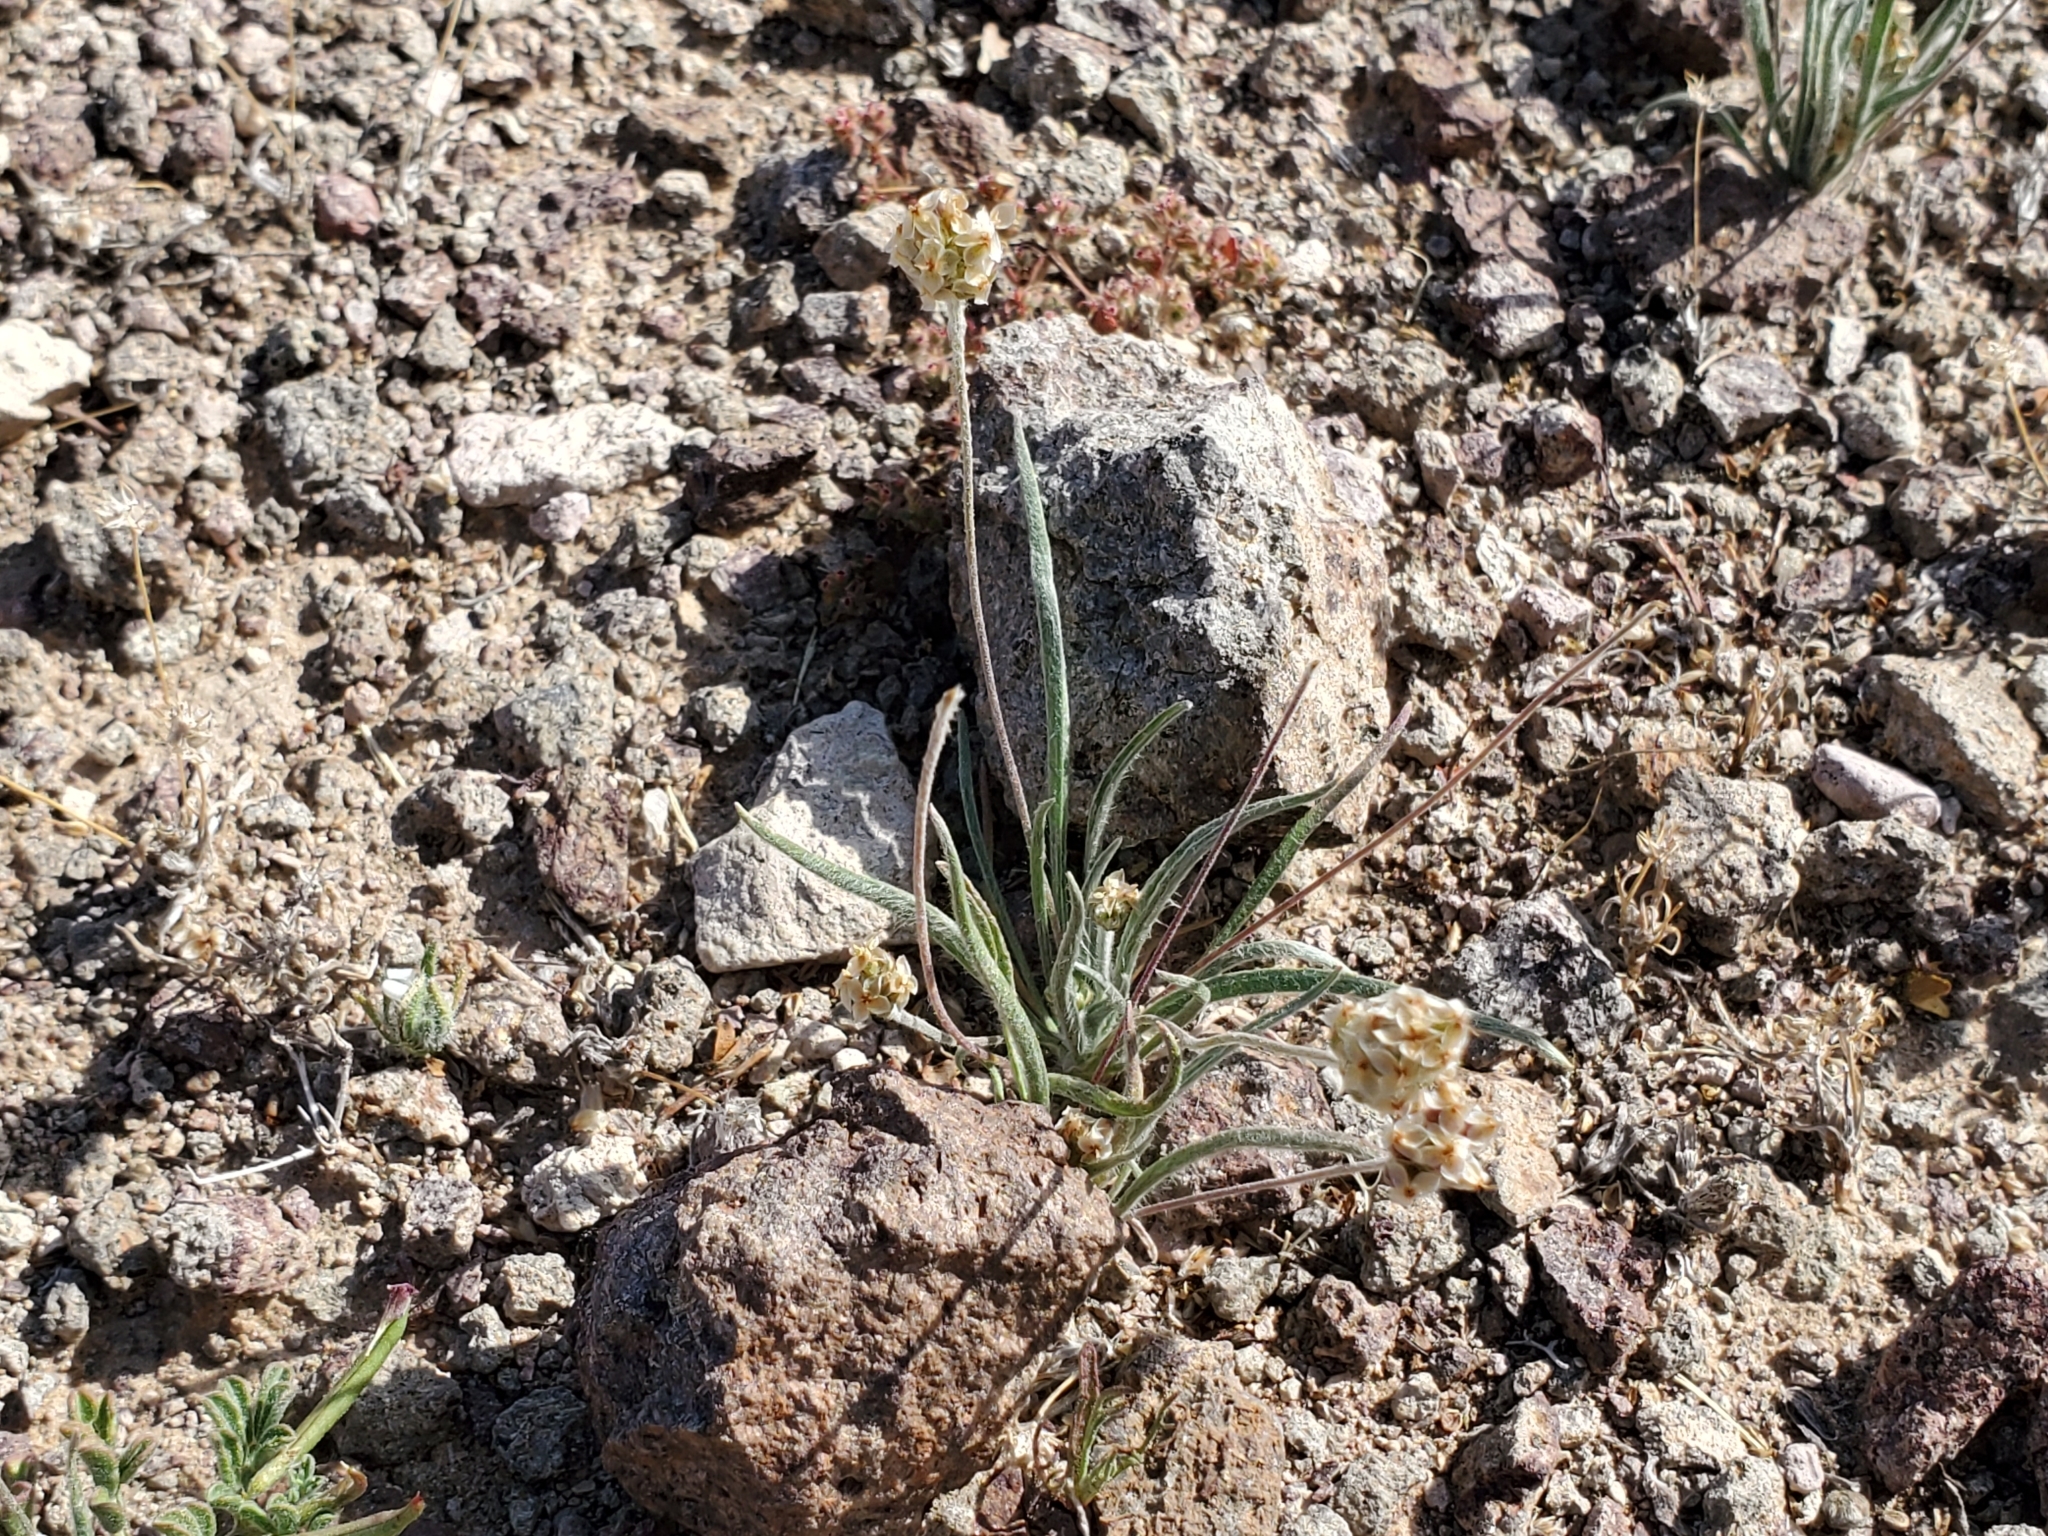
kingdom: Plantae
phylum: Tracheophyta
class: Magnoliopsida
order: Lamiales
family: Plantaginaceae
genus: Plantago
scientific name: Plantago ovata
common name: Blond plantain
